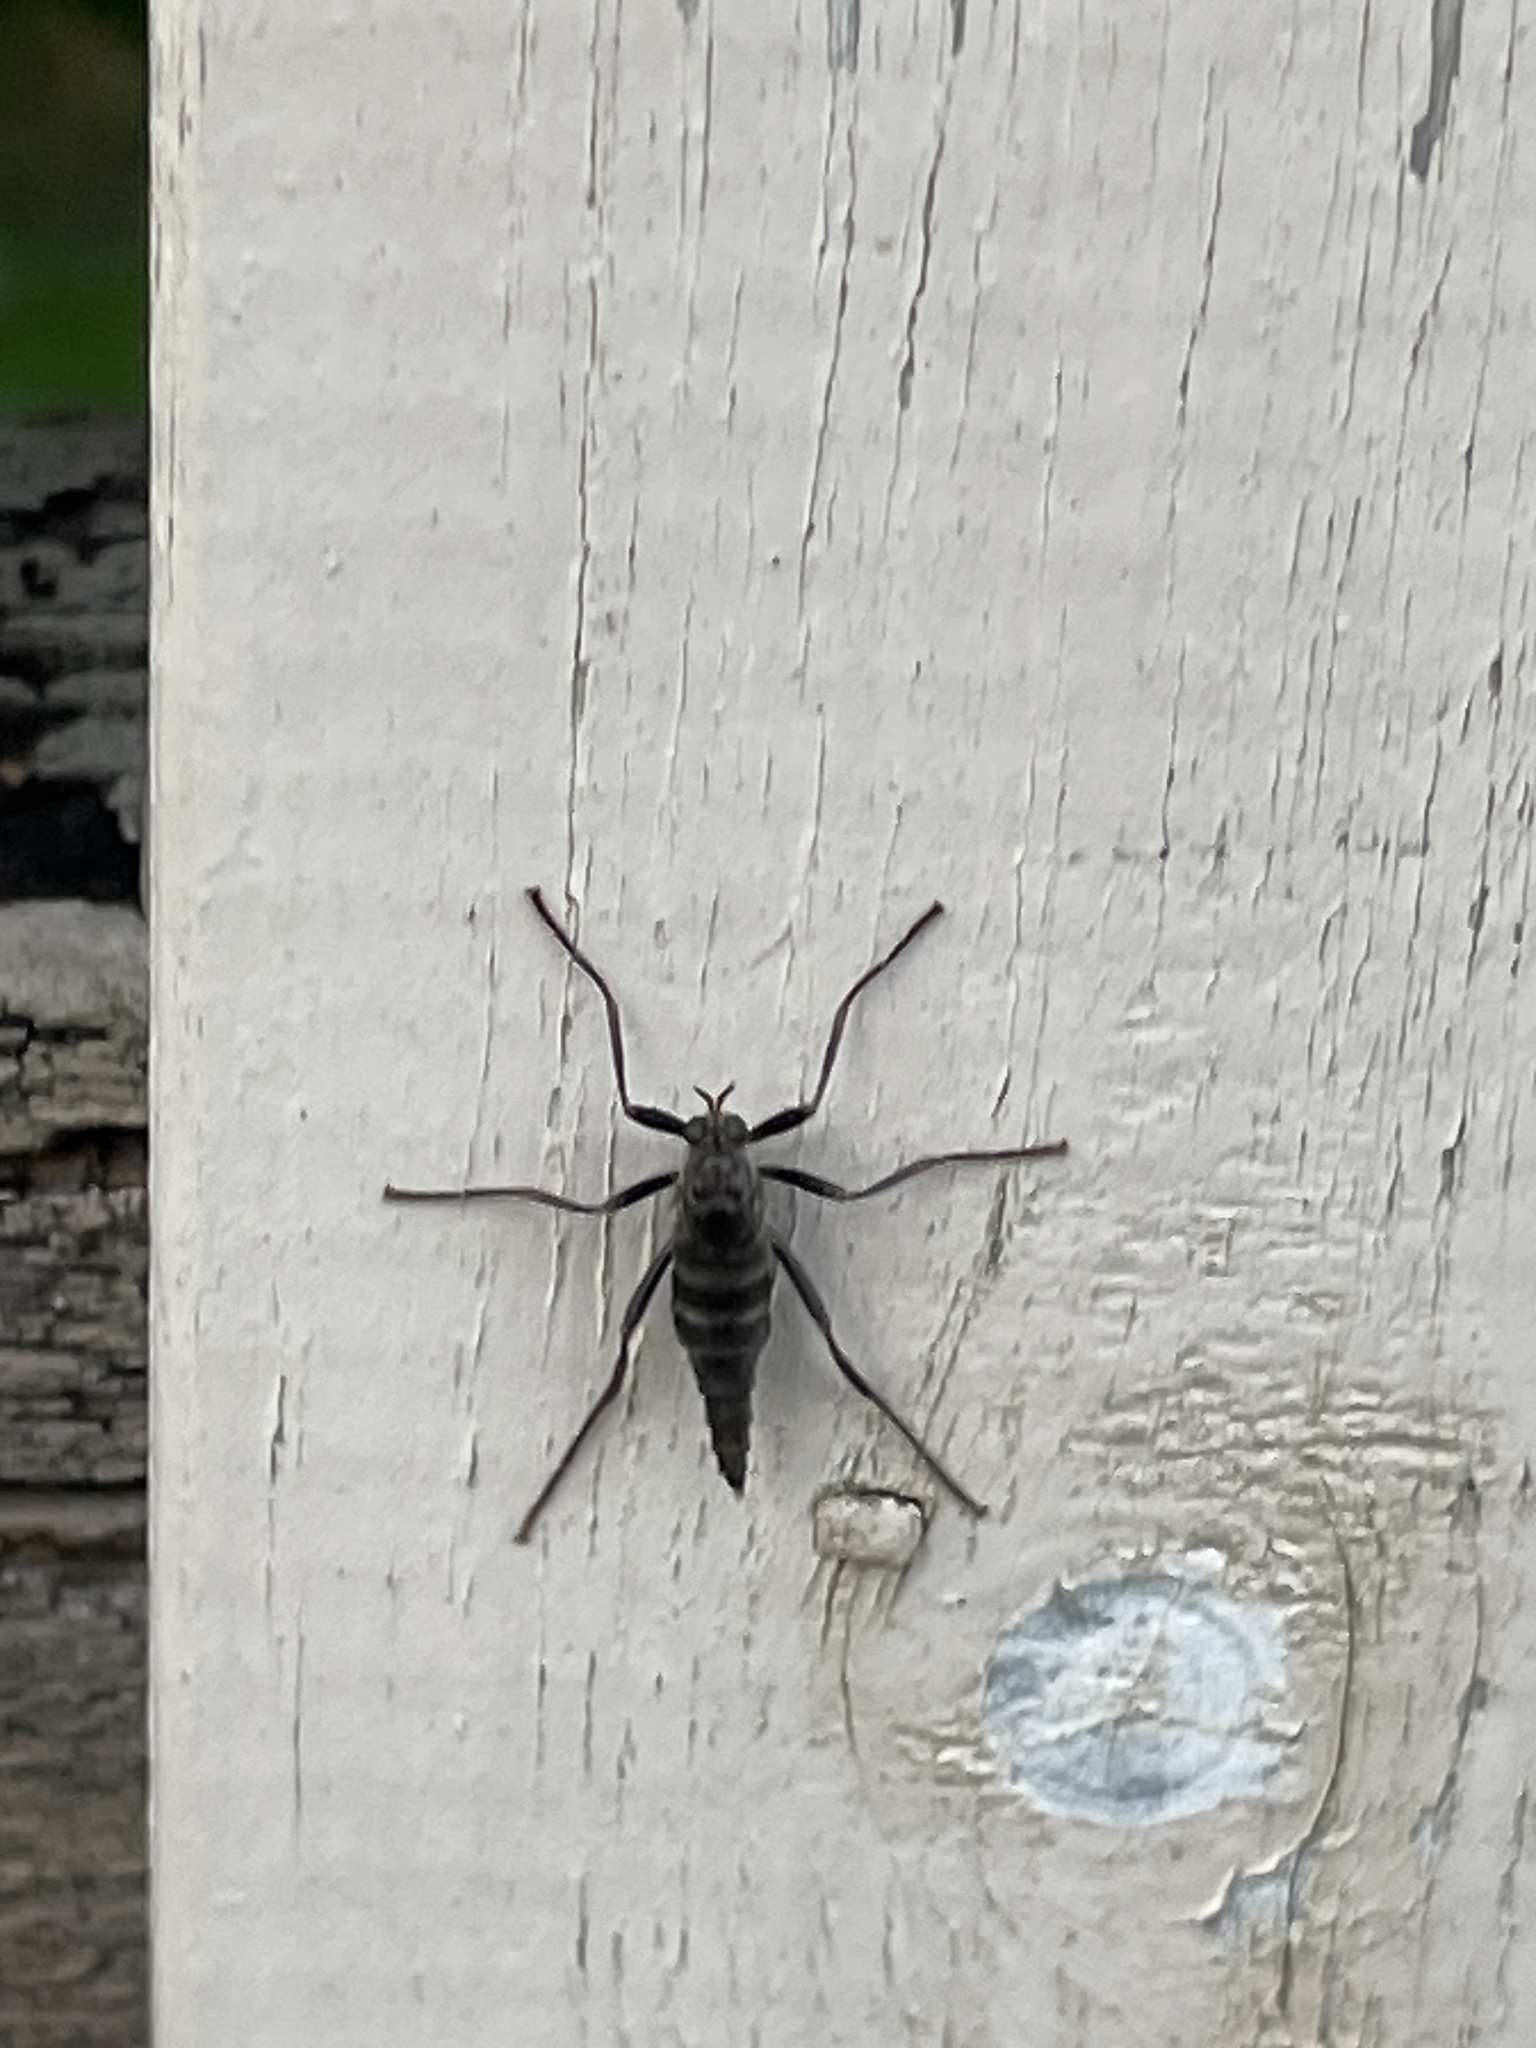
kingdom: Animalia
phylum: Arthropoda
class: Insecta
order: Diptera
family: Stratiomyidae
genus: Boreoides
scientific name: Boreoides subulatus
